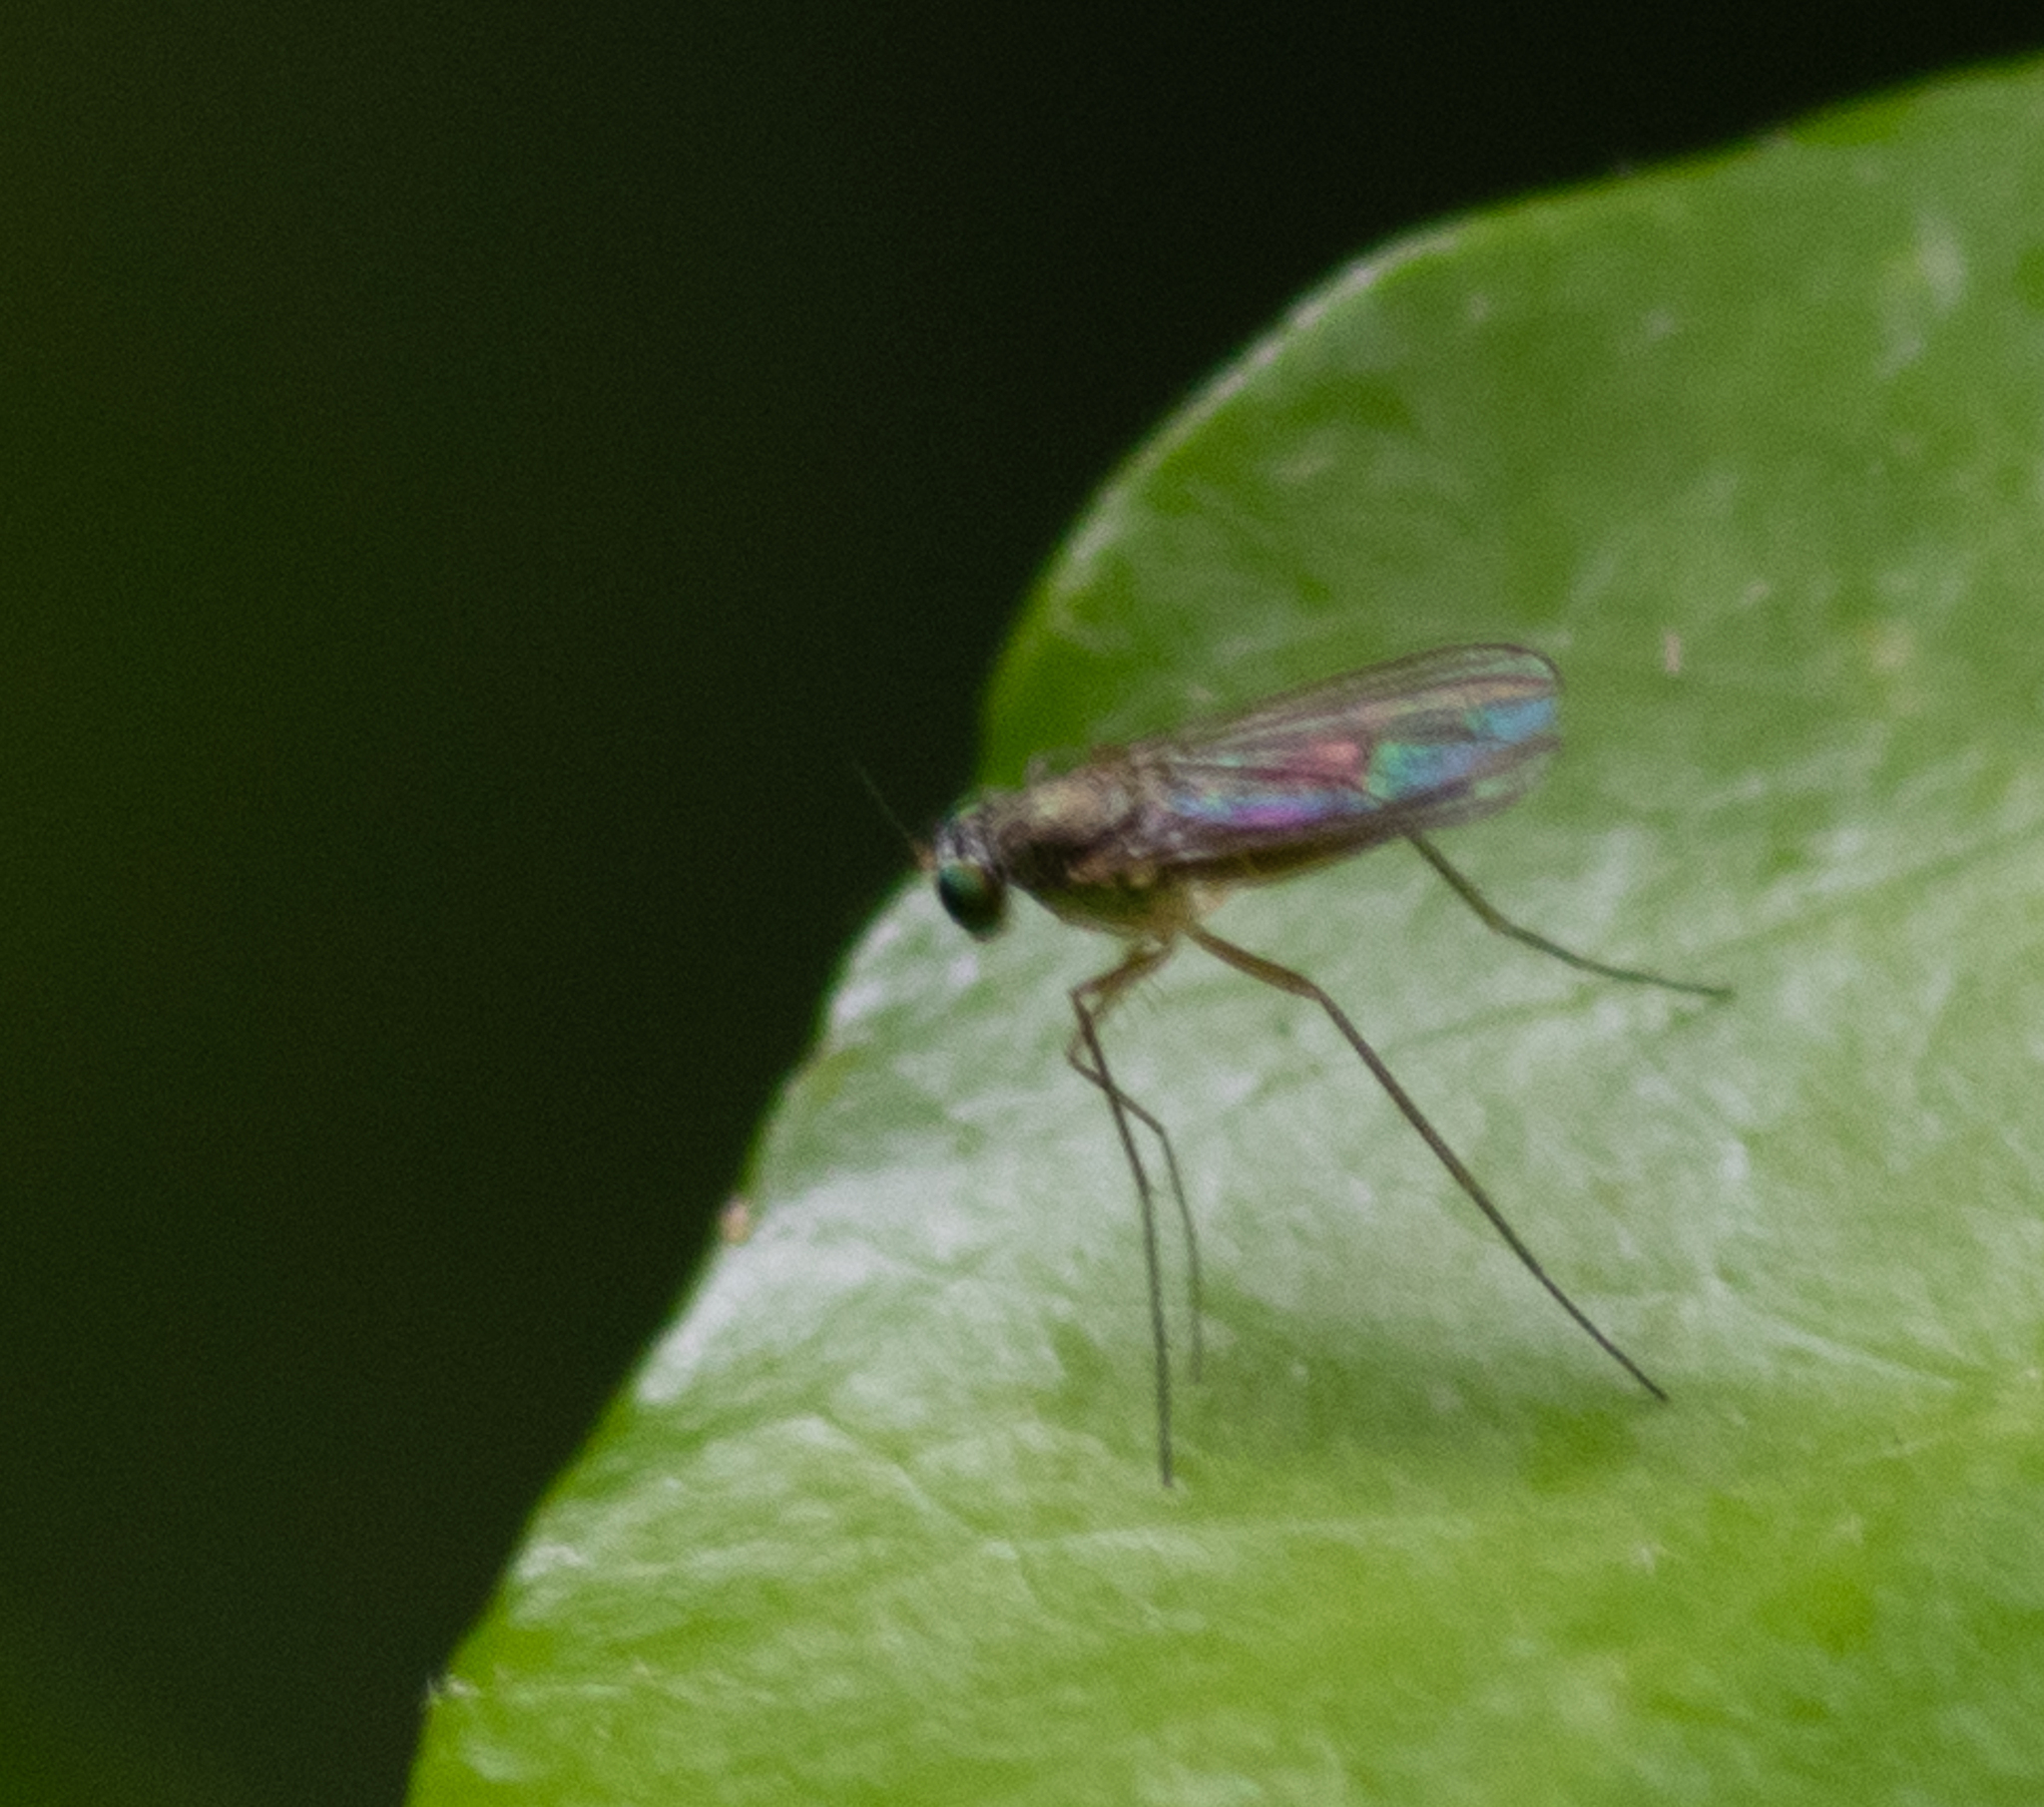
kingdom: Animalia
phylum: Arthropoda
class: Insecta
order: Diptera
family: Dolichopodidae
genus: Sciapus
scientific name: Sciapus platypterus
